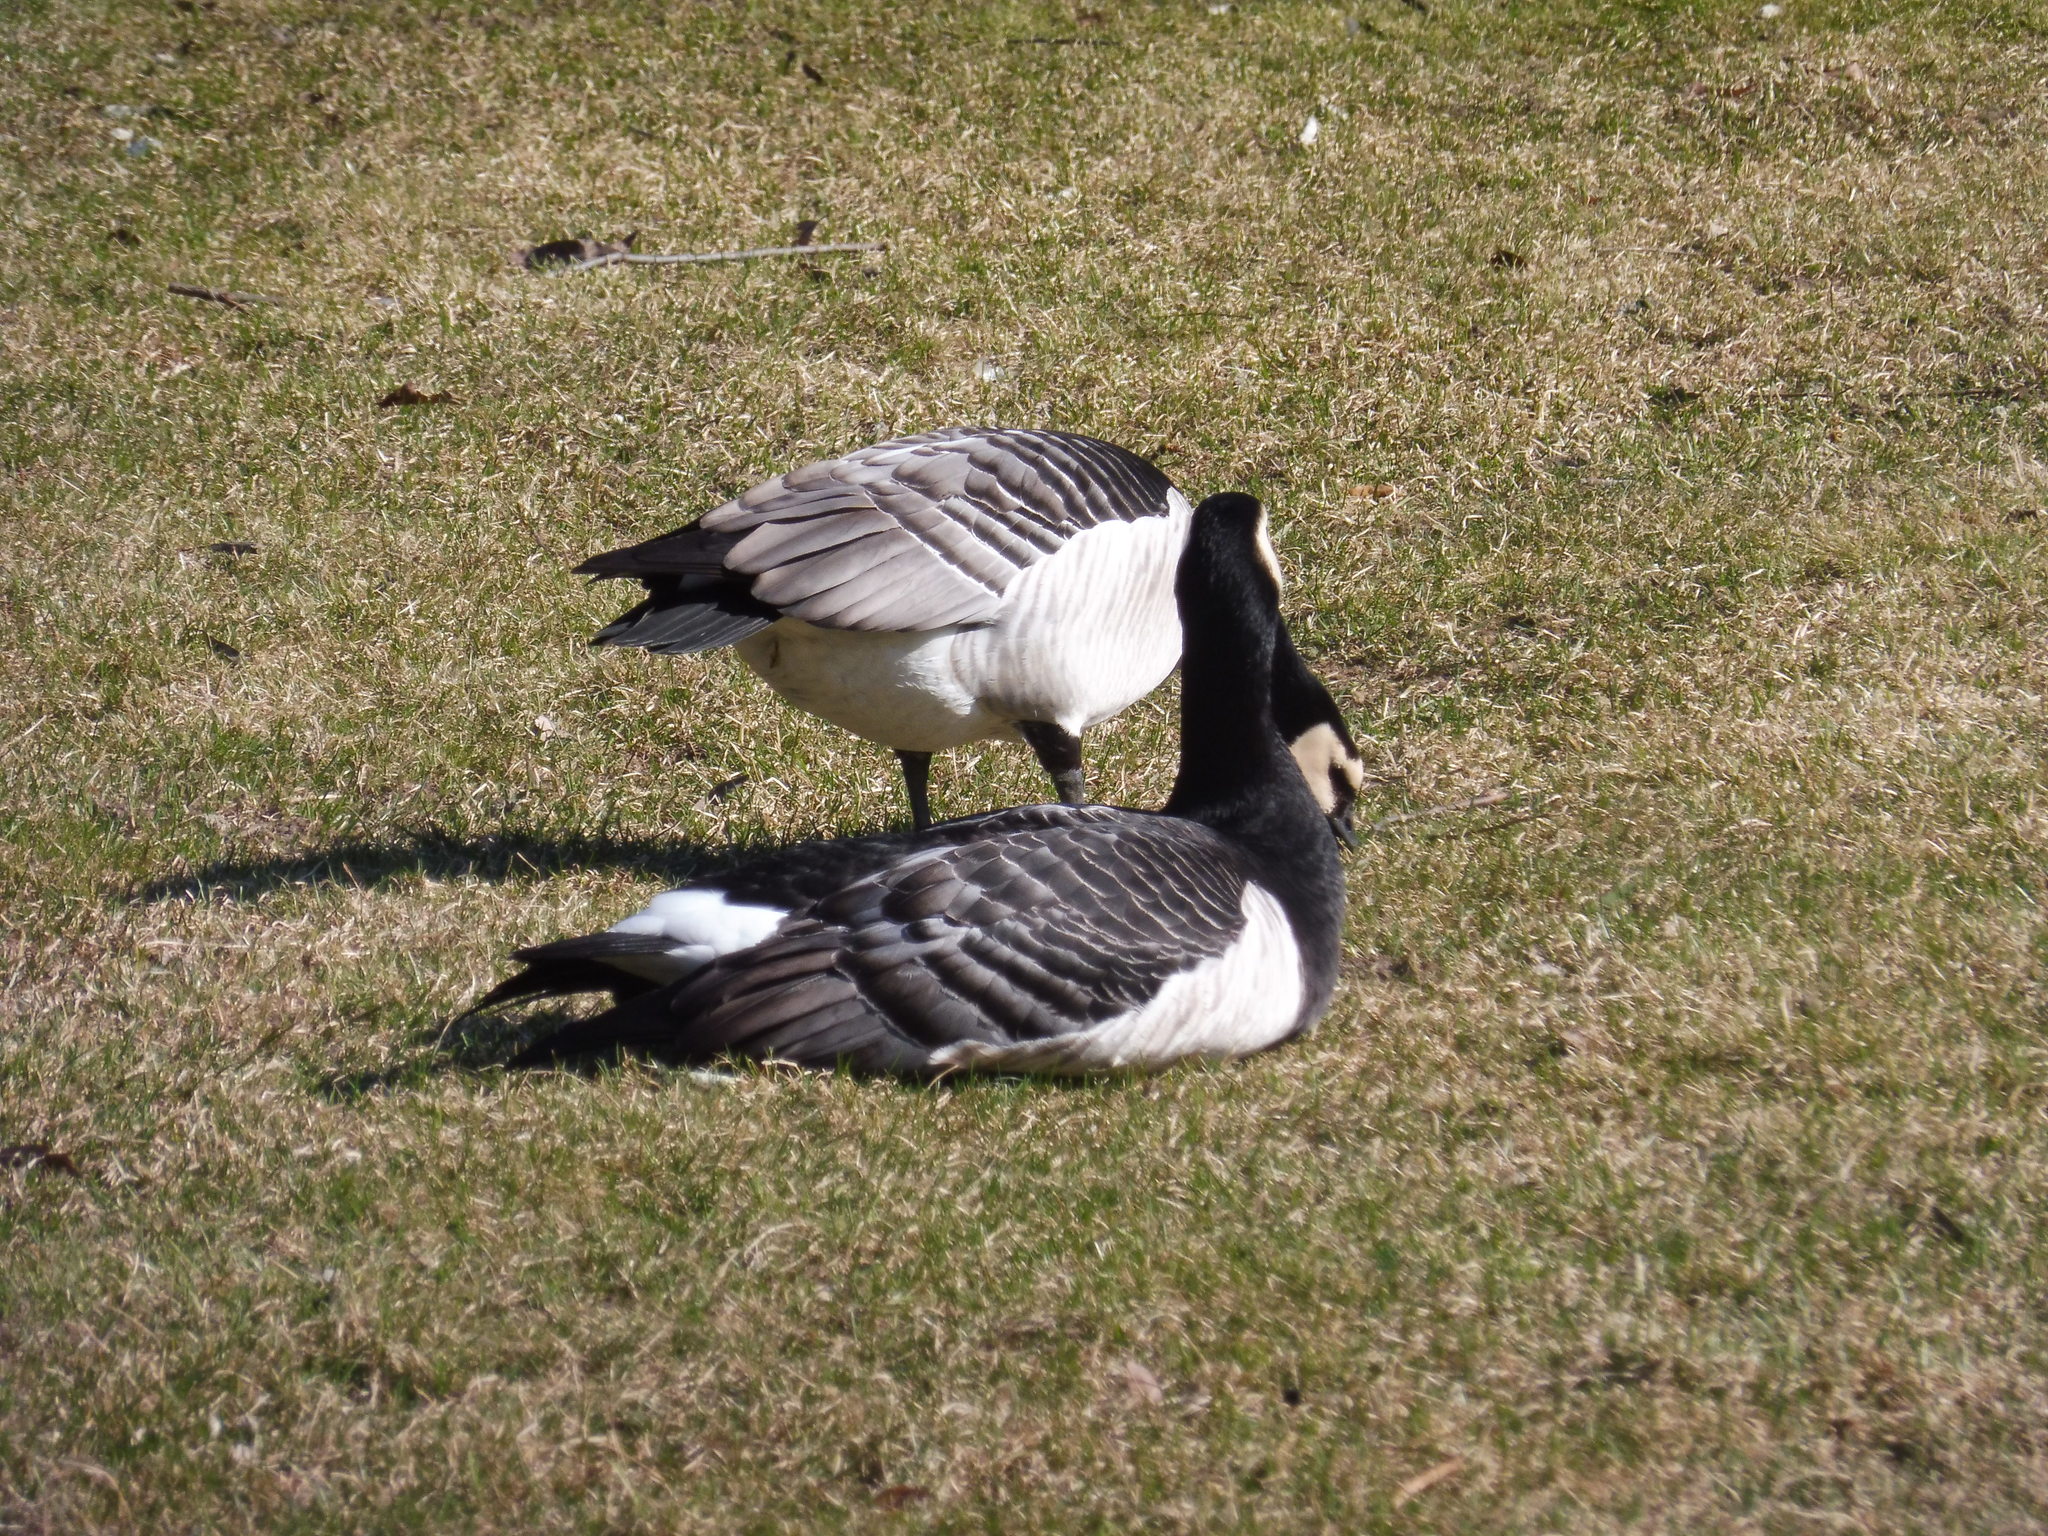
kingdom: Animalia
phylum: Chordata
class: Aves
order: Anseriformes
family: Anatidae
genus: Branta
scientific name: Branta leucopsis
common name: Barnacle goose
